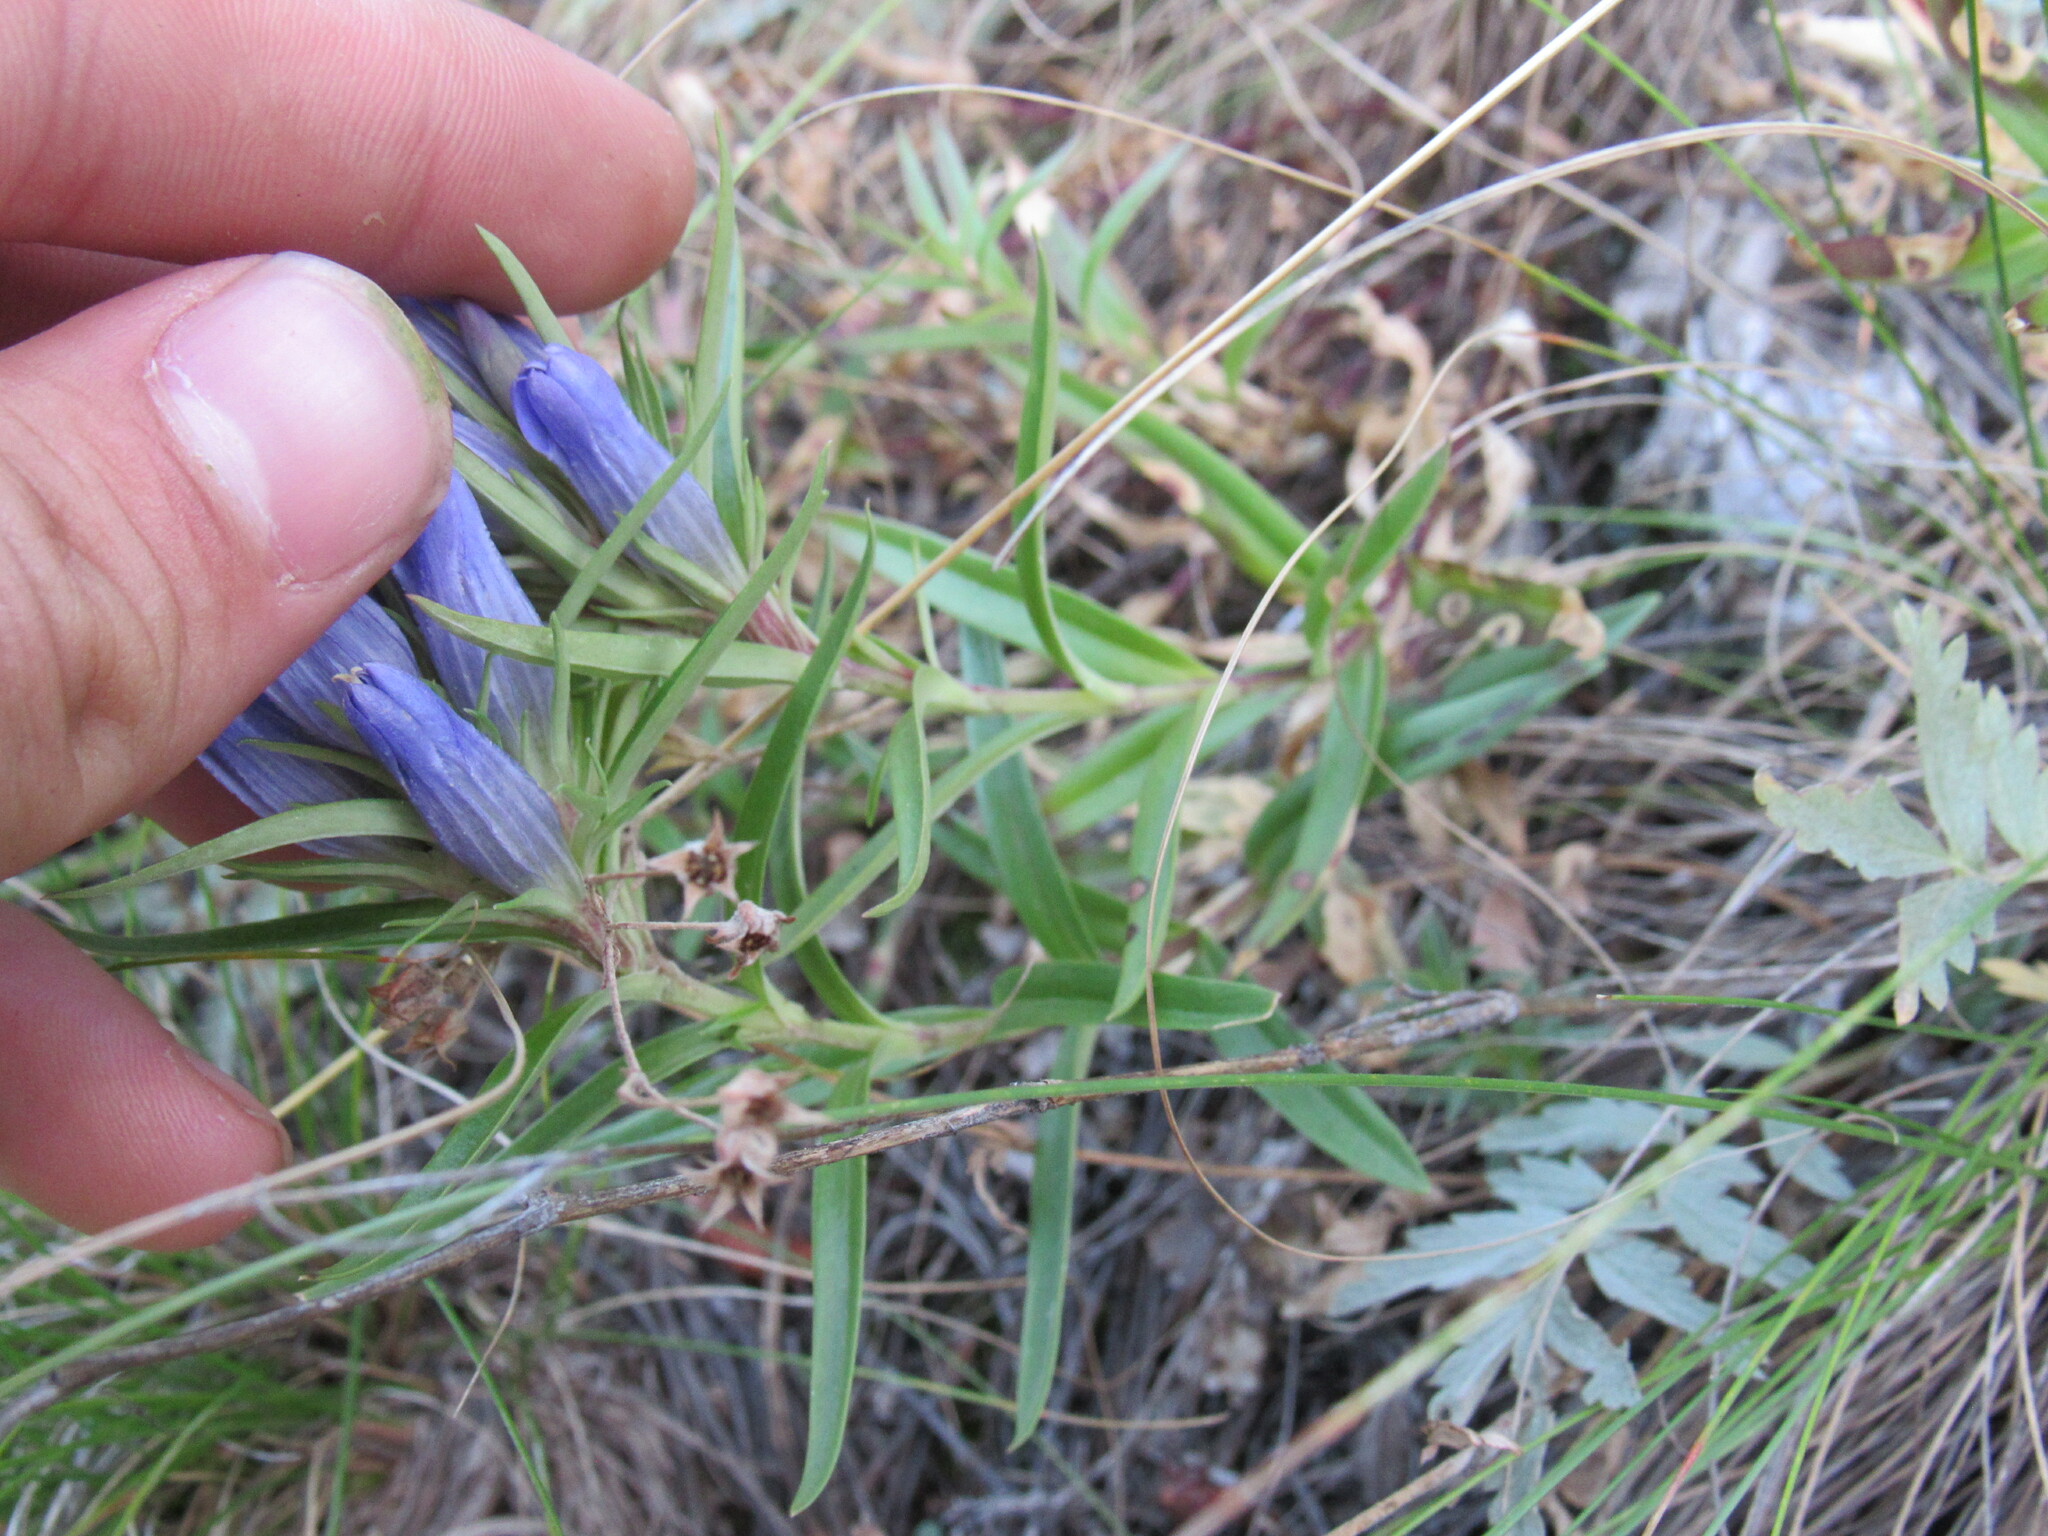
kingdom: Plantae
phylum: Tracheophyta
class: Magnoliopsida
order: Gentianales
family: Gentianaceae
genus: Gentiana
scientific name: Gentiana affinis
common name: Rocky mountain gentian
